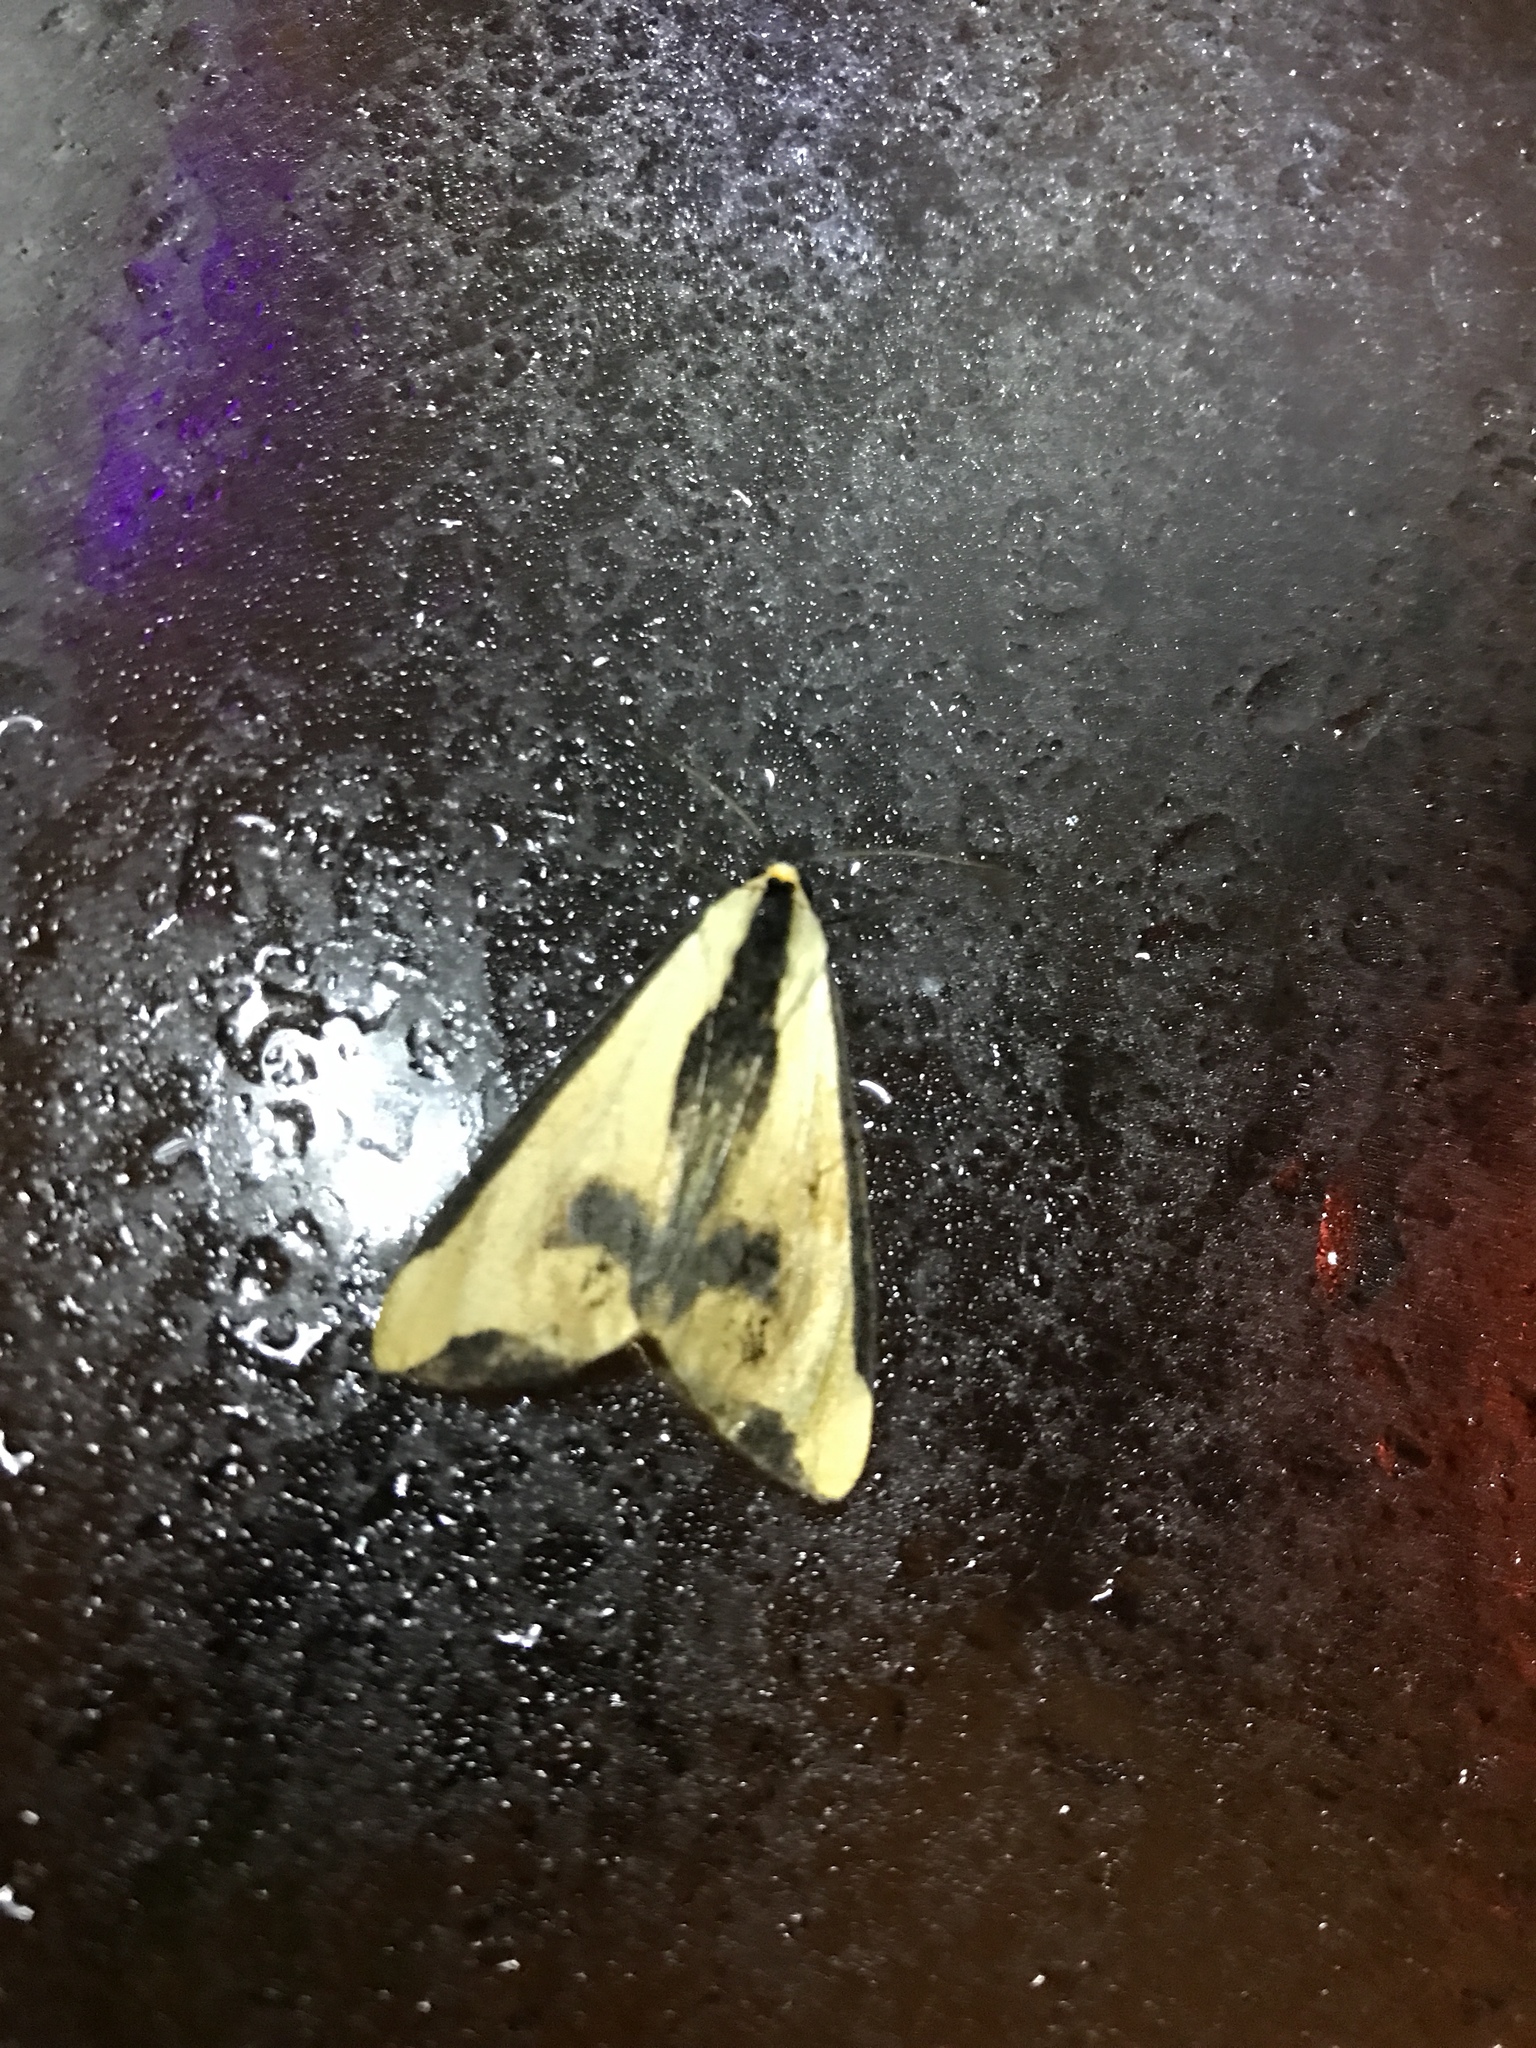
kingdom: Animalia
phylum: Arthropoda
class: Insecta
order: Lepidoptera
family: Erebidae
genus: Haploa
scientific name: Haploa clymene
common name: Clymene moth
